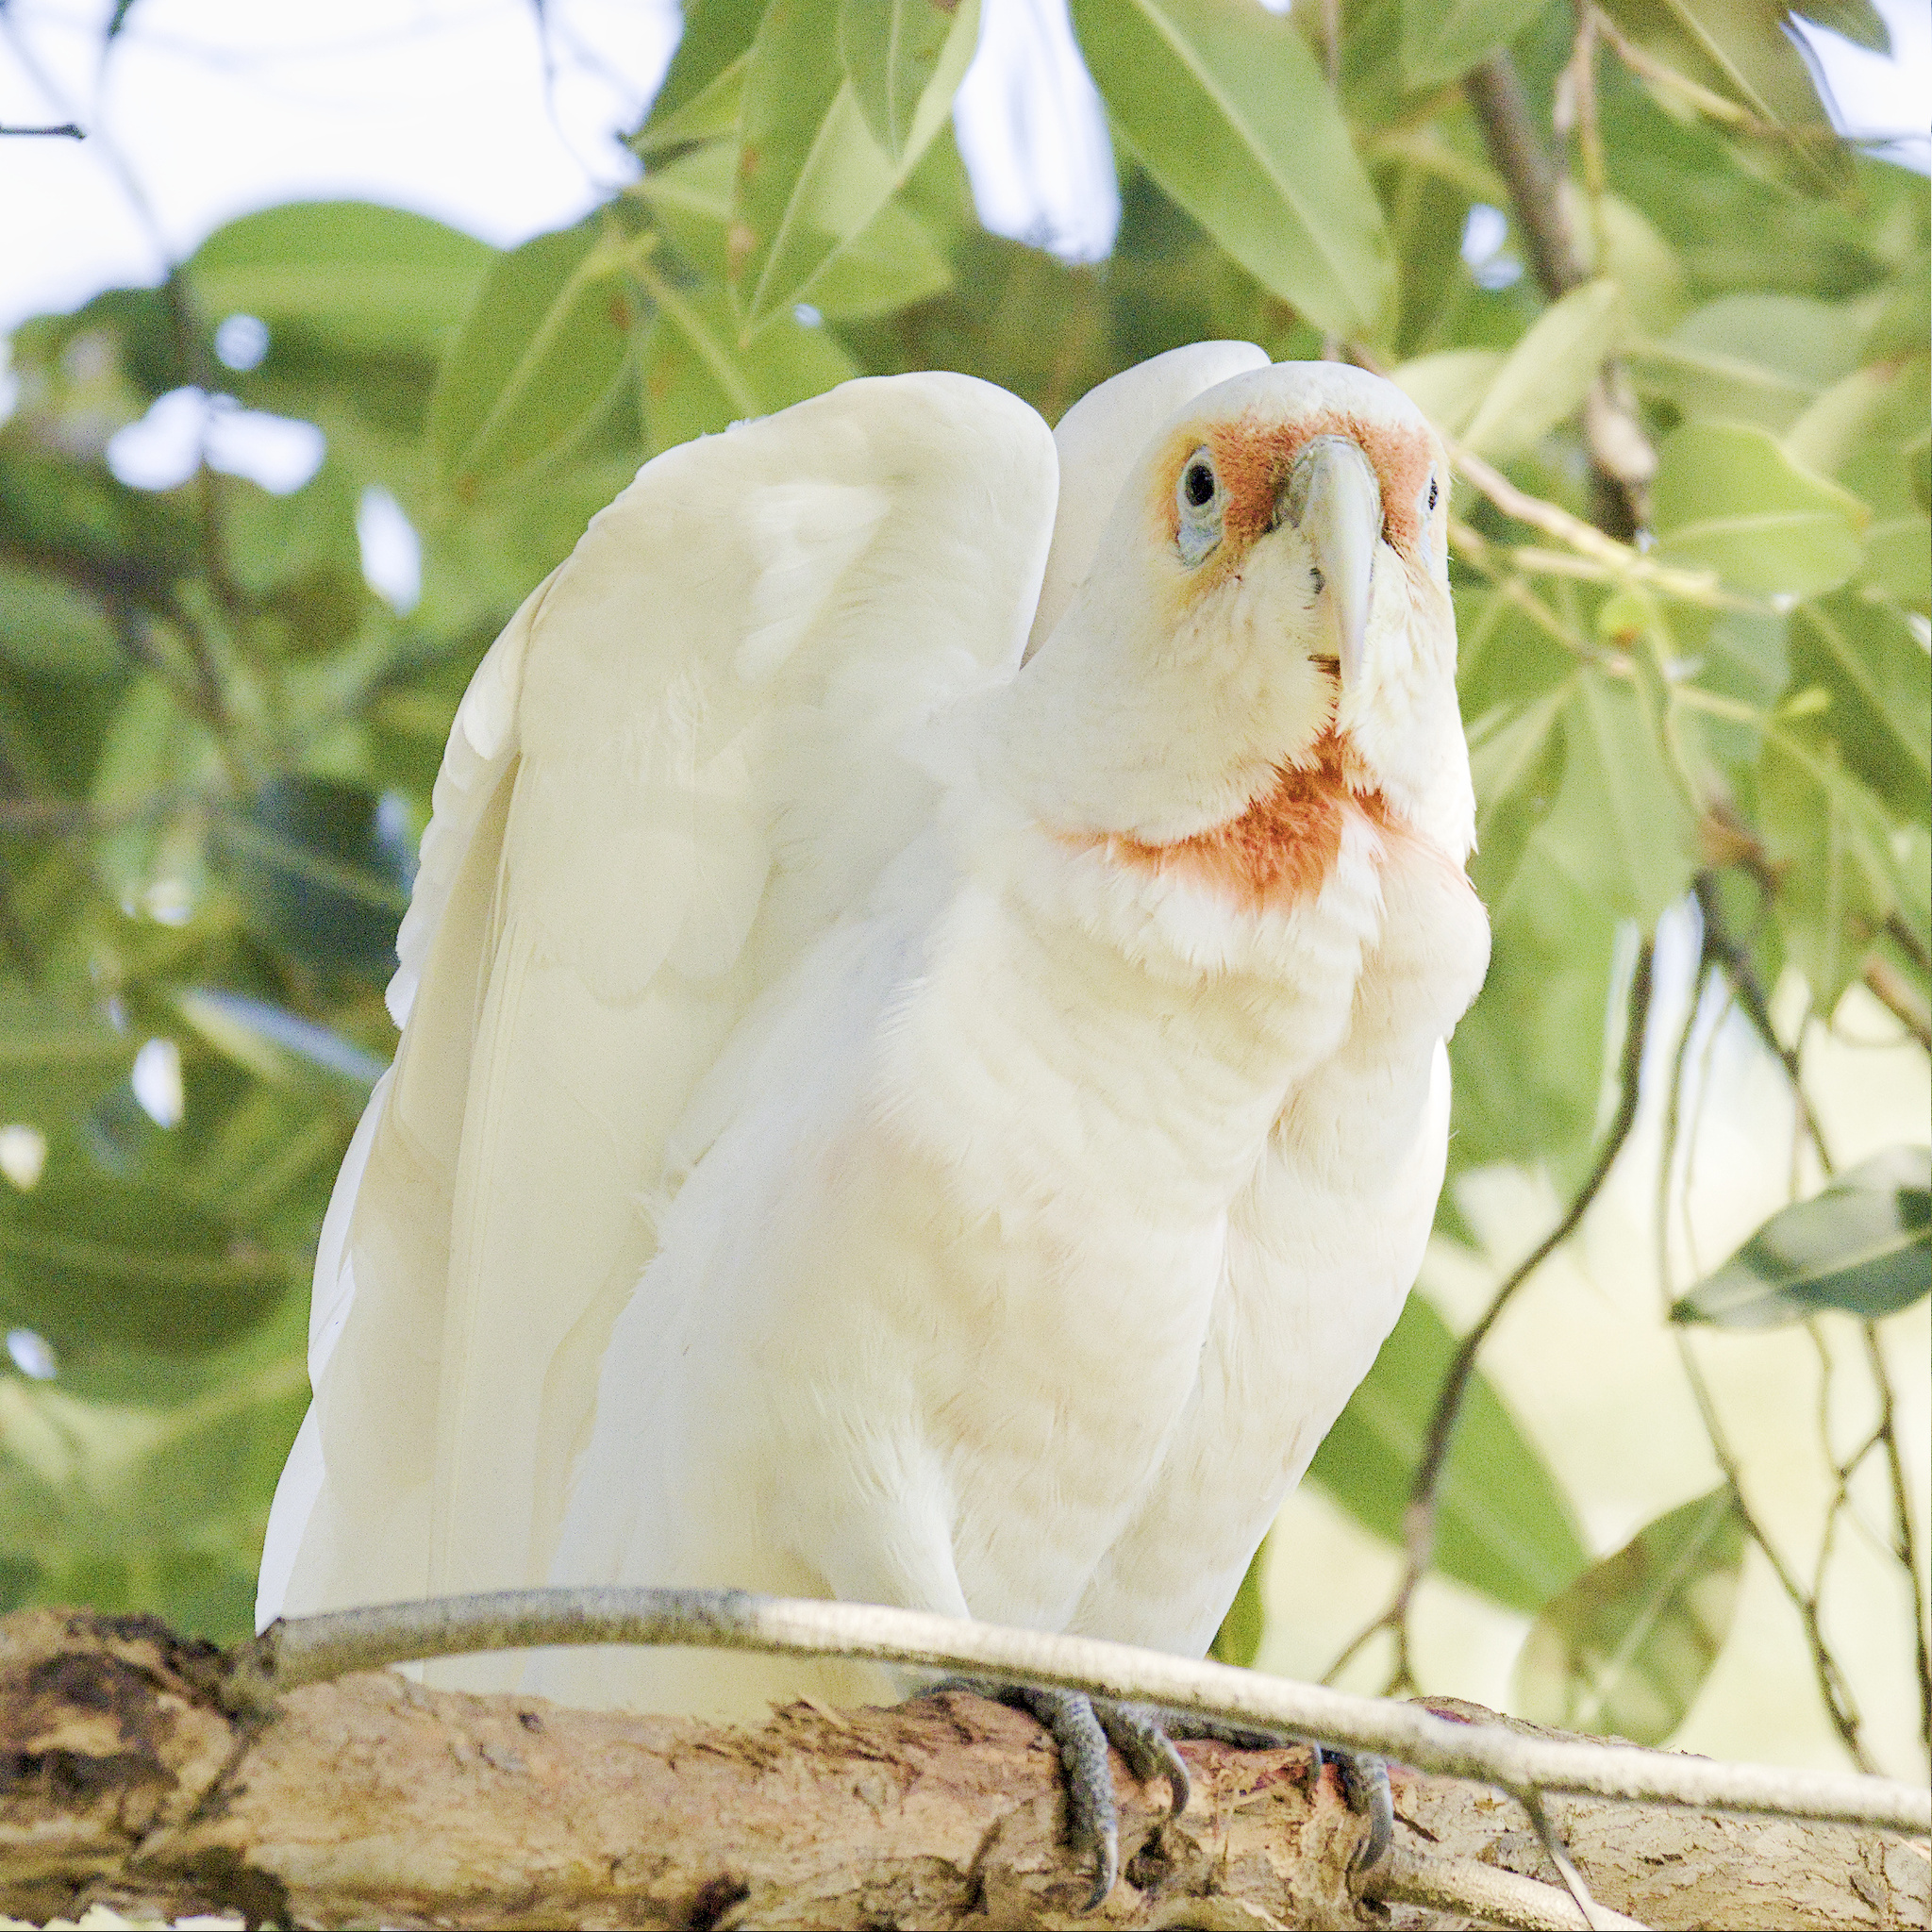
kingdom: Animalia
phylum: Chordata
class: Aves
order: Psittaciformes
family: Psittacidae
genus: Cacatua
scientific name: Cacatua tenuirostris
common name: Long-billed corella
